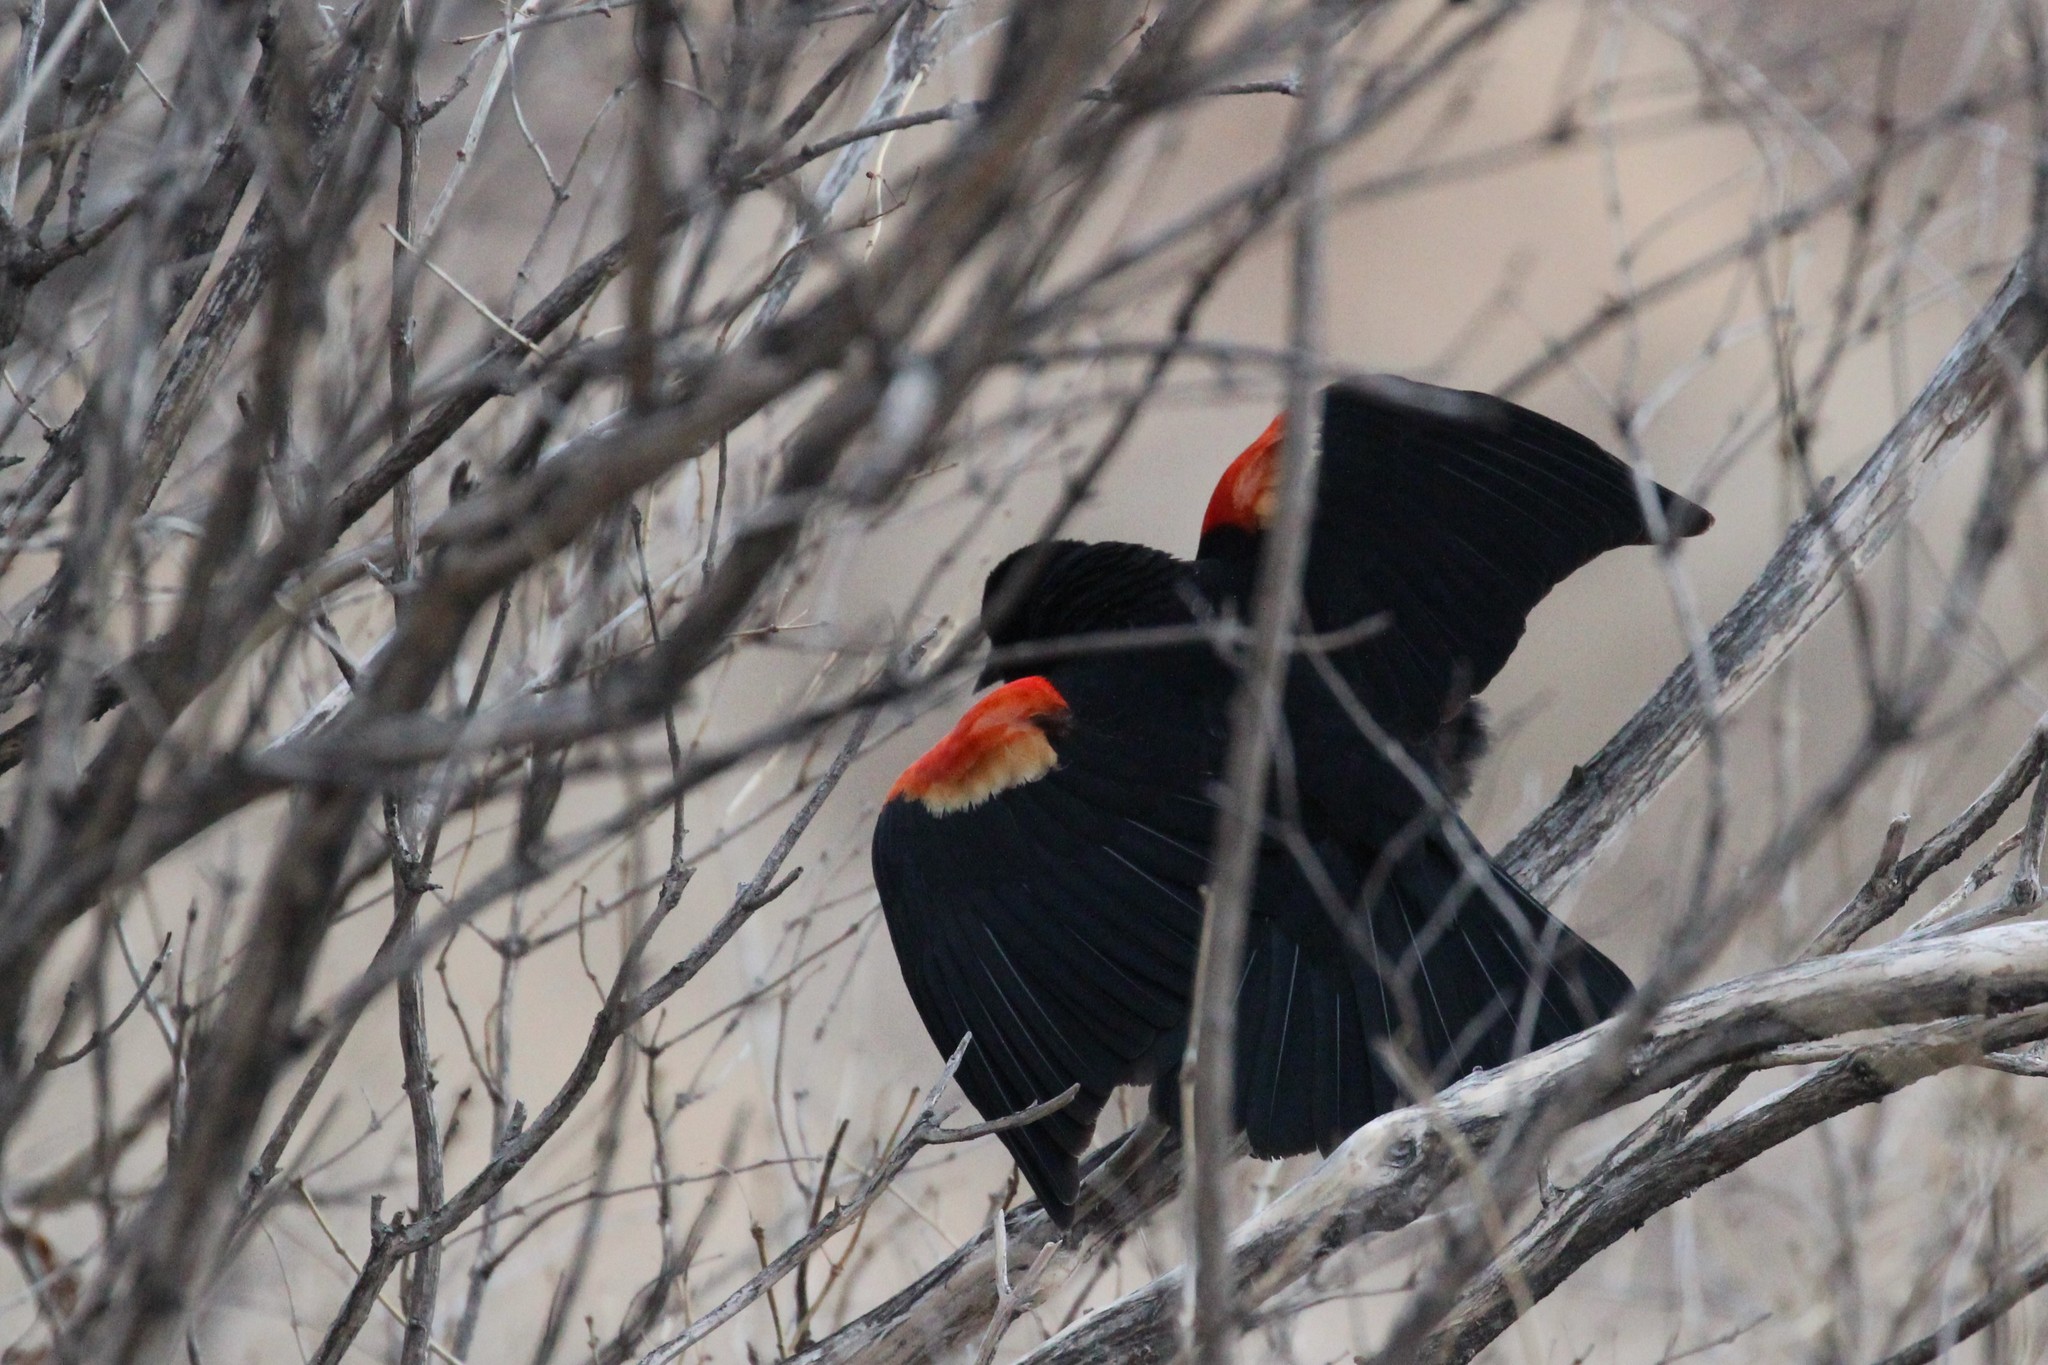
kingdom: Animalia
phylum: Chordata
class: Aves
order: Passeriformes
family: Icteridae
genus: Agelaius
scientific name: Agelaius phoeniceus
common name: Red-winged blackbird
